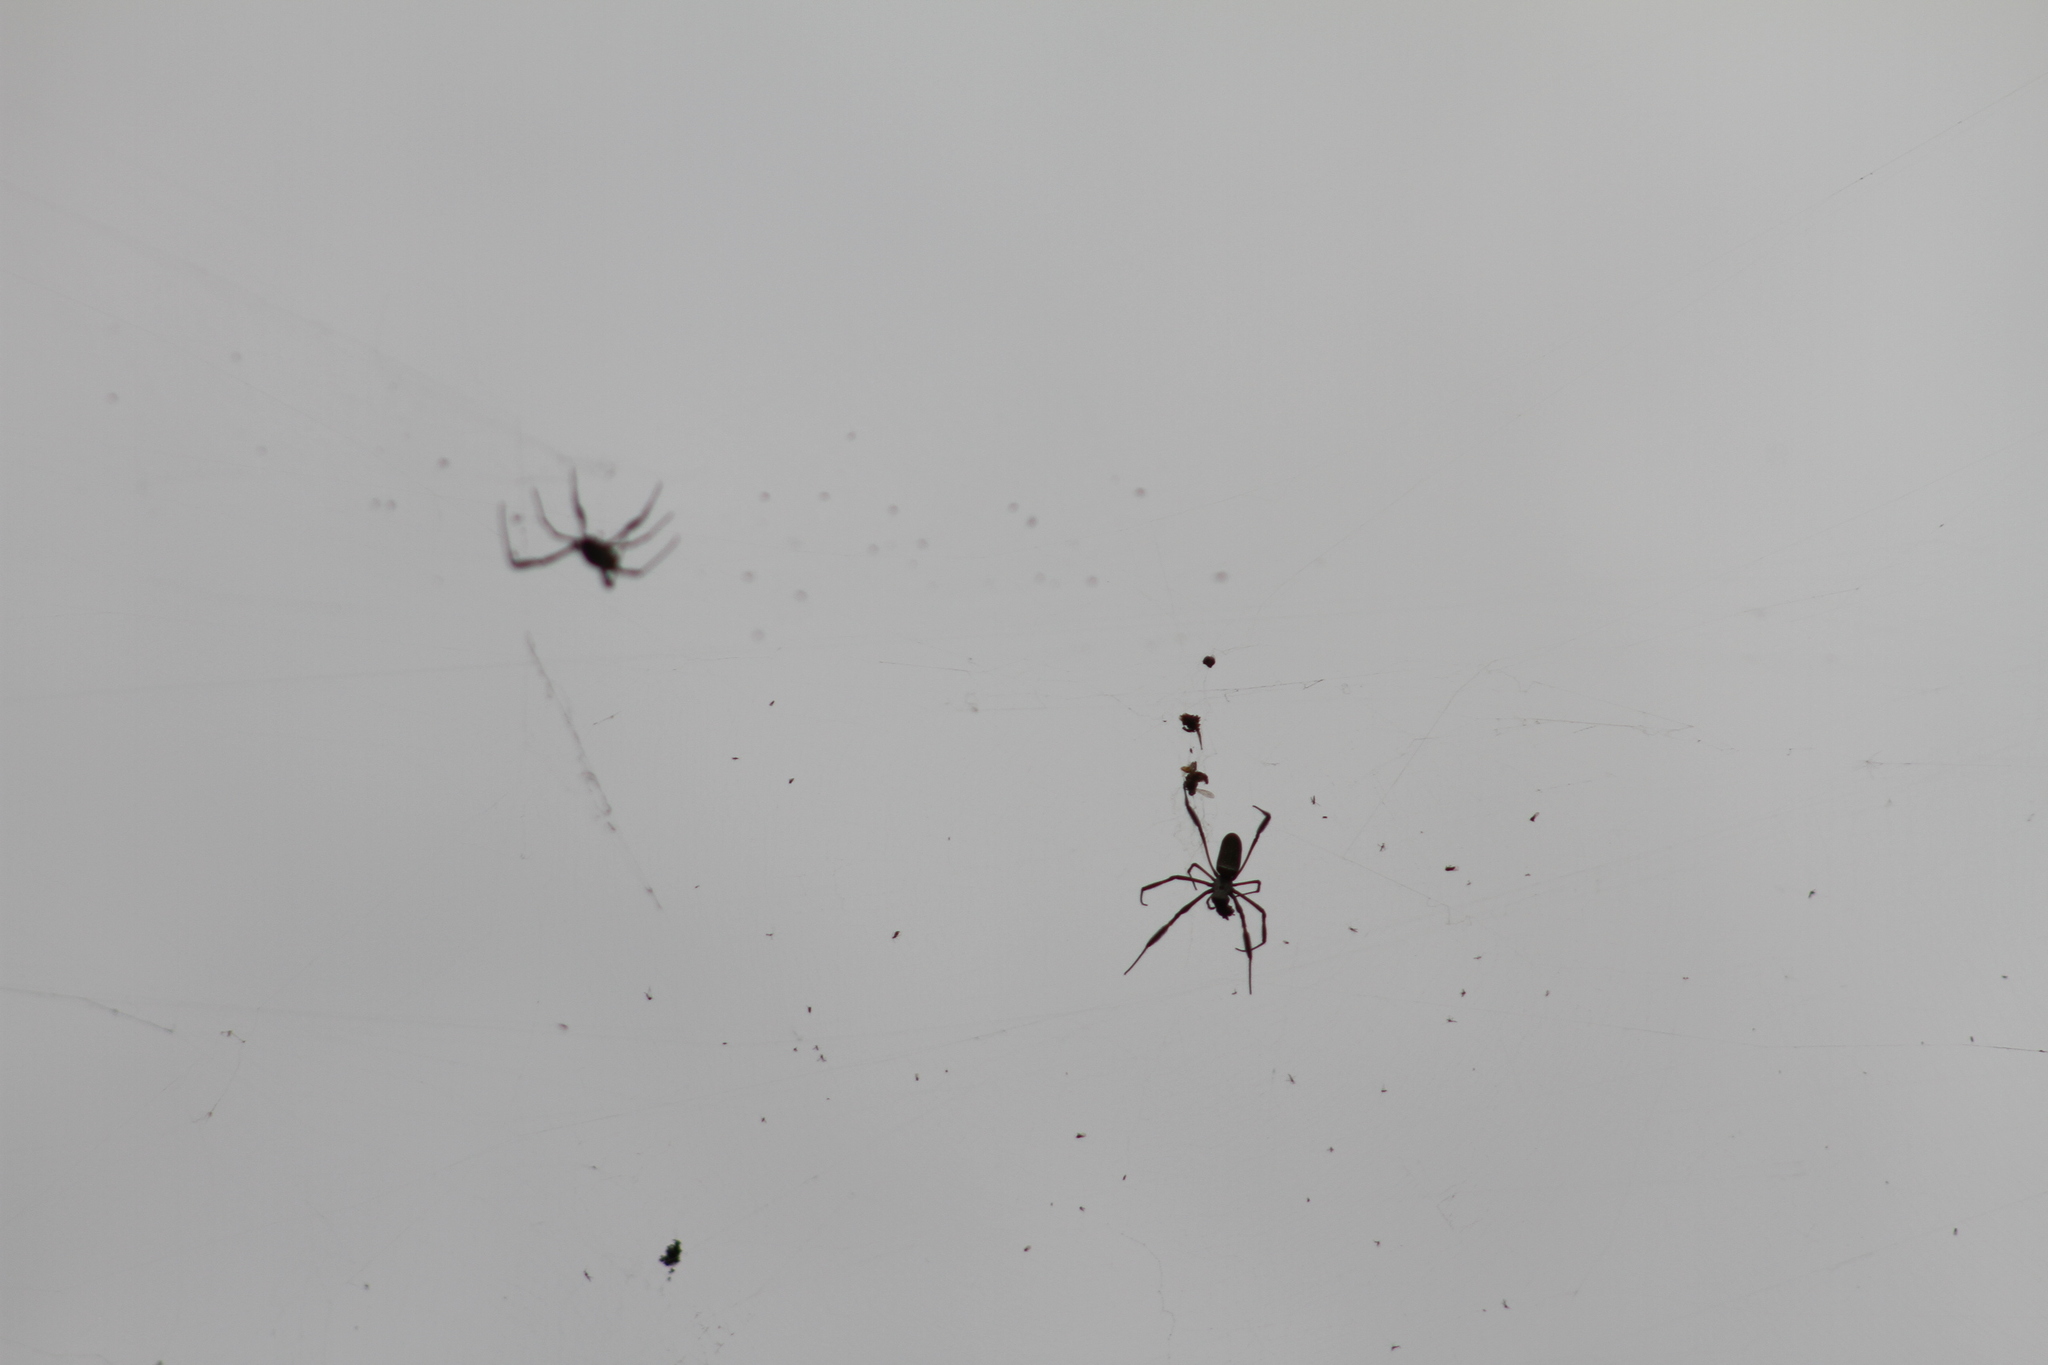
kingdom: Animalia
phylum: Arthropoda
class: Arachnida
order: Araneae
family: Araneidae
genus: Trichonephila
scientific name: Trichonephila clavipes
